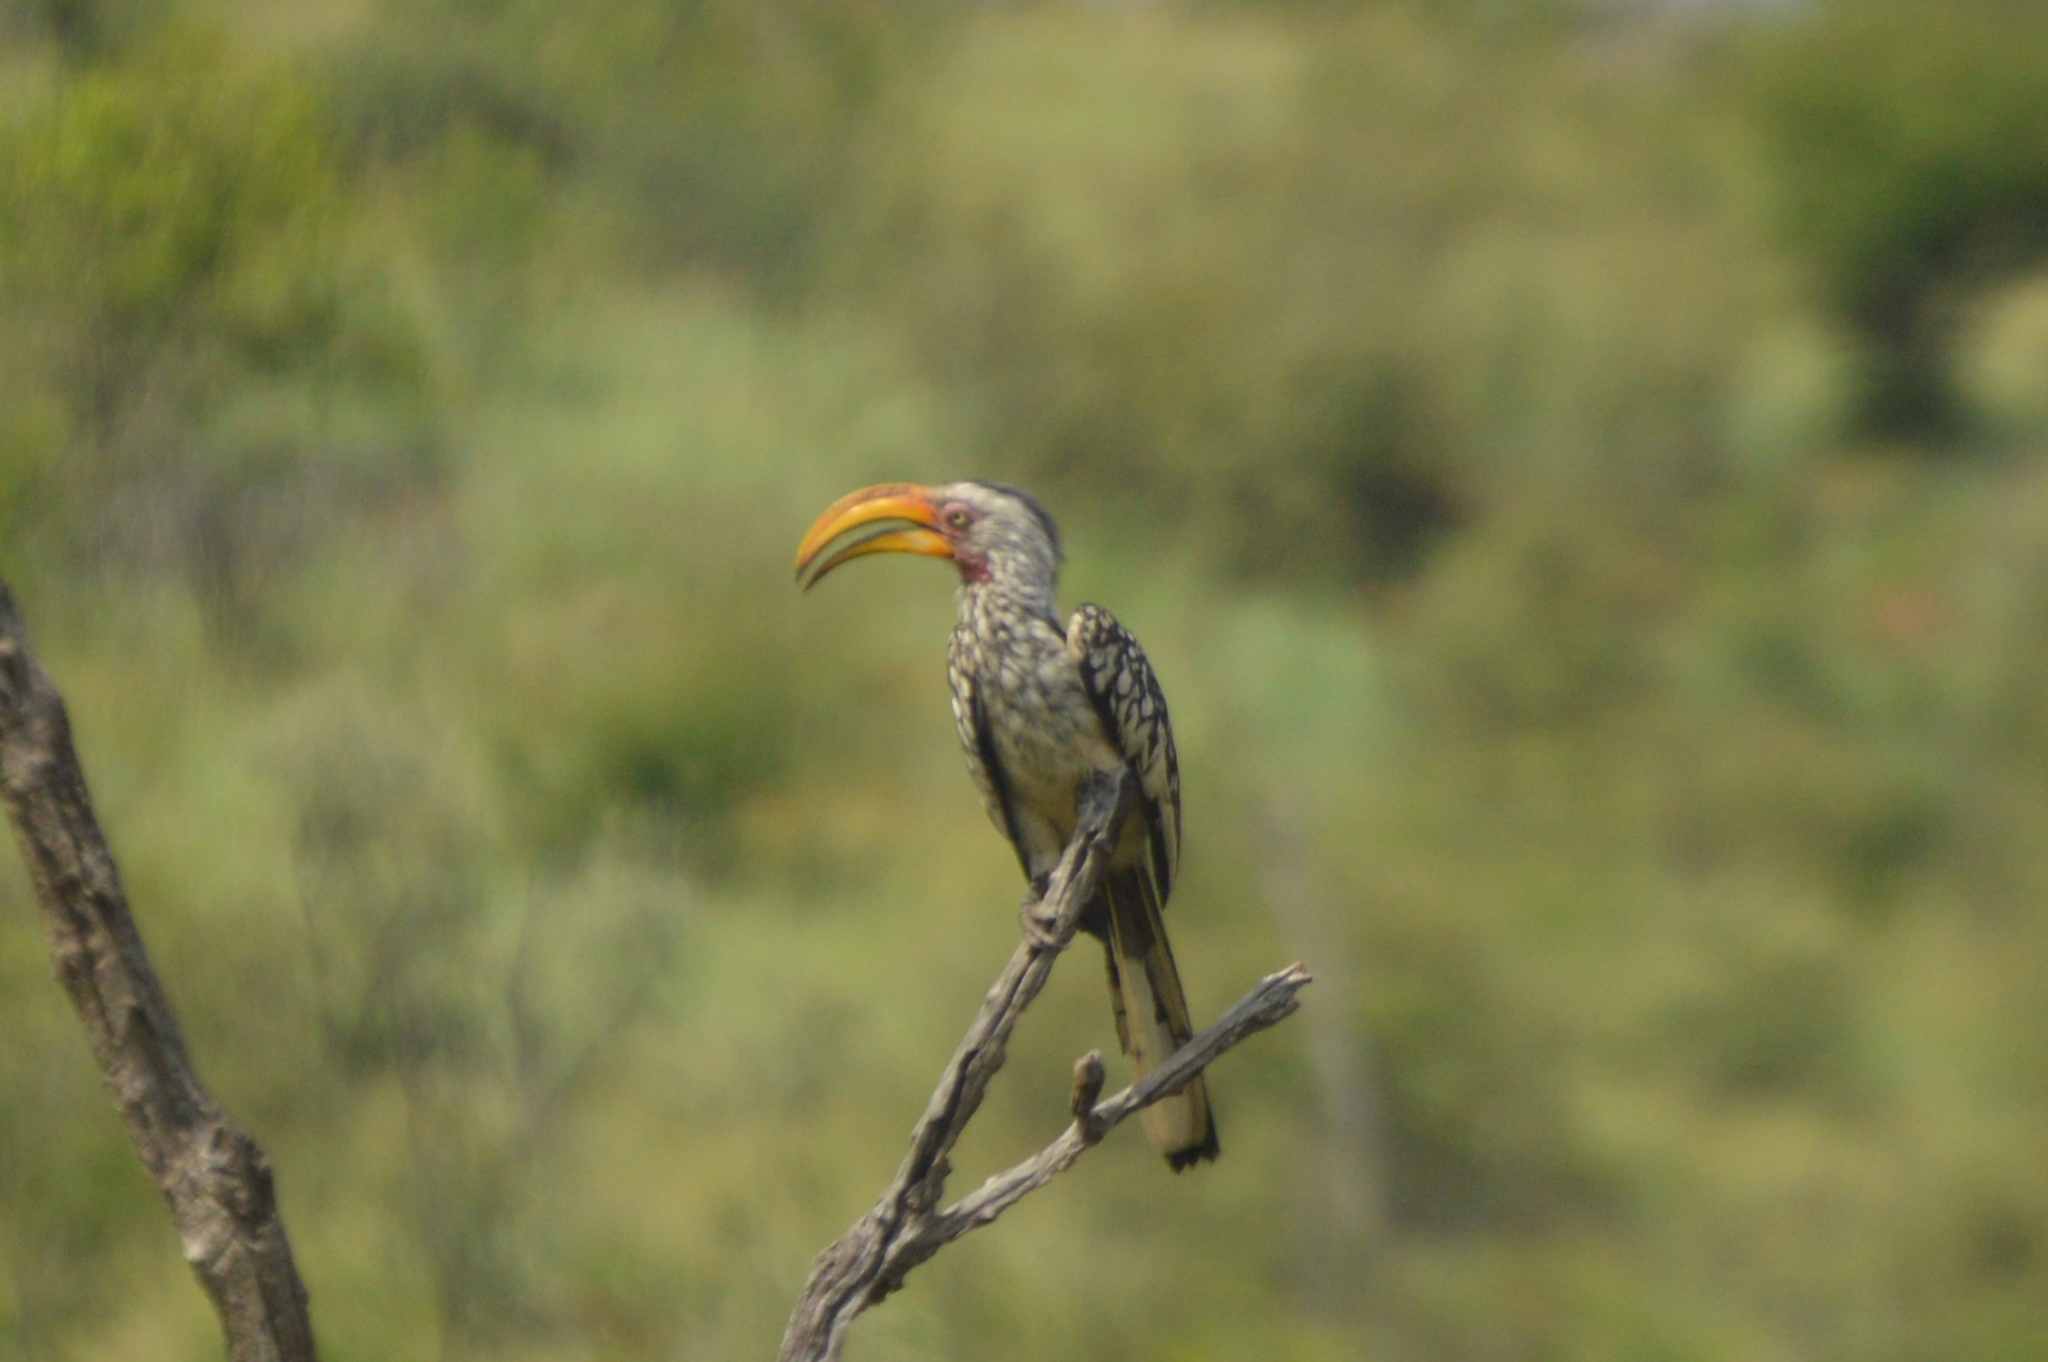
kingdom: Animalia
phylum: Chordata
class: Aves
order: Bucerotiformes
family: Bucerotidae
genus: Tockus
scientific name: Tockus leucomelas
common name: Southern yellow-billed hornbill
